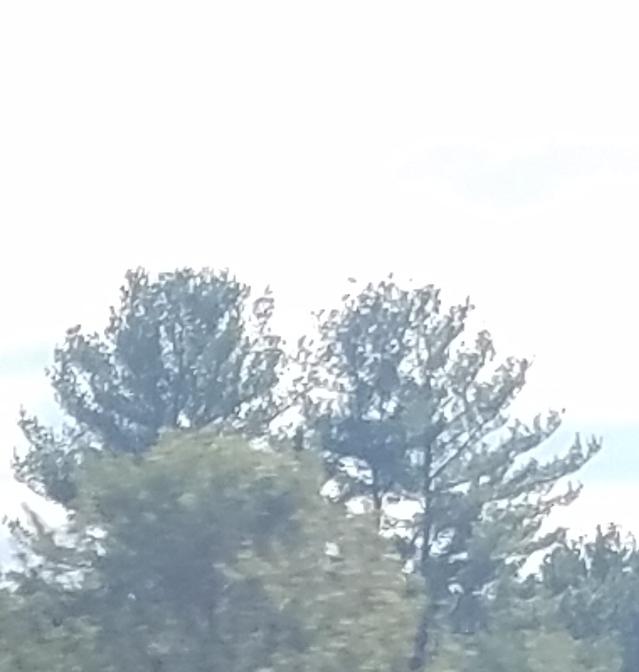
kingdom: Plantae
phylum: Tracheophyta
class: Pinopsida
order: Pinales
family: Pinaceae
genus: Pinus
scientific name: Pinus strobus
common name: Weymouth pine
